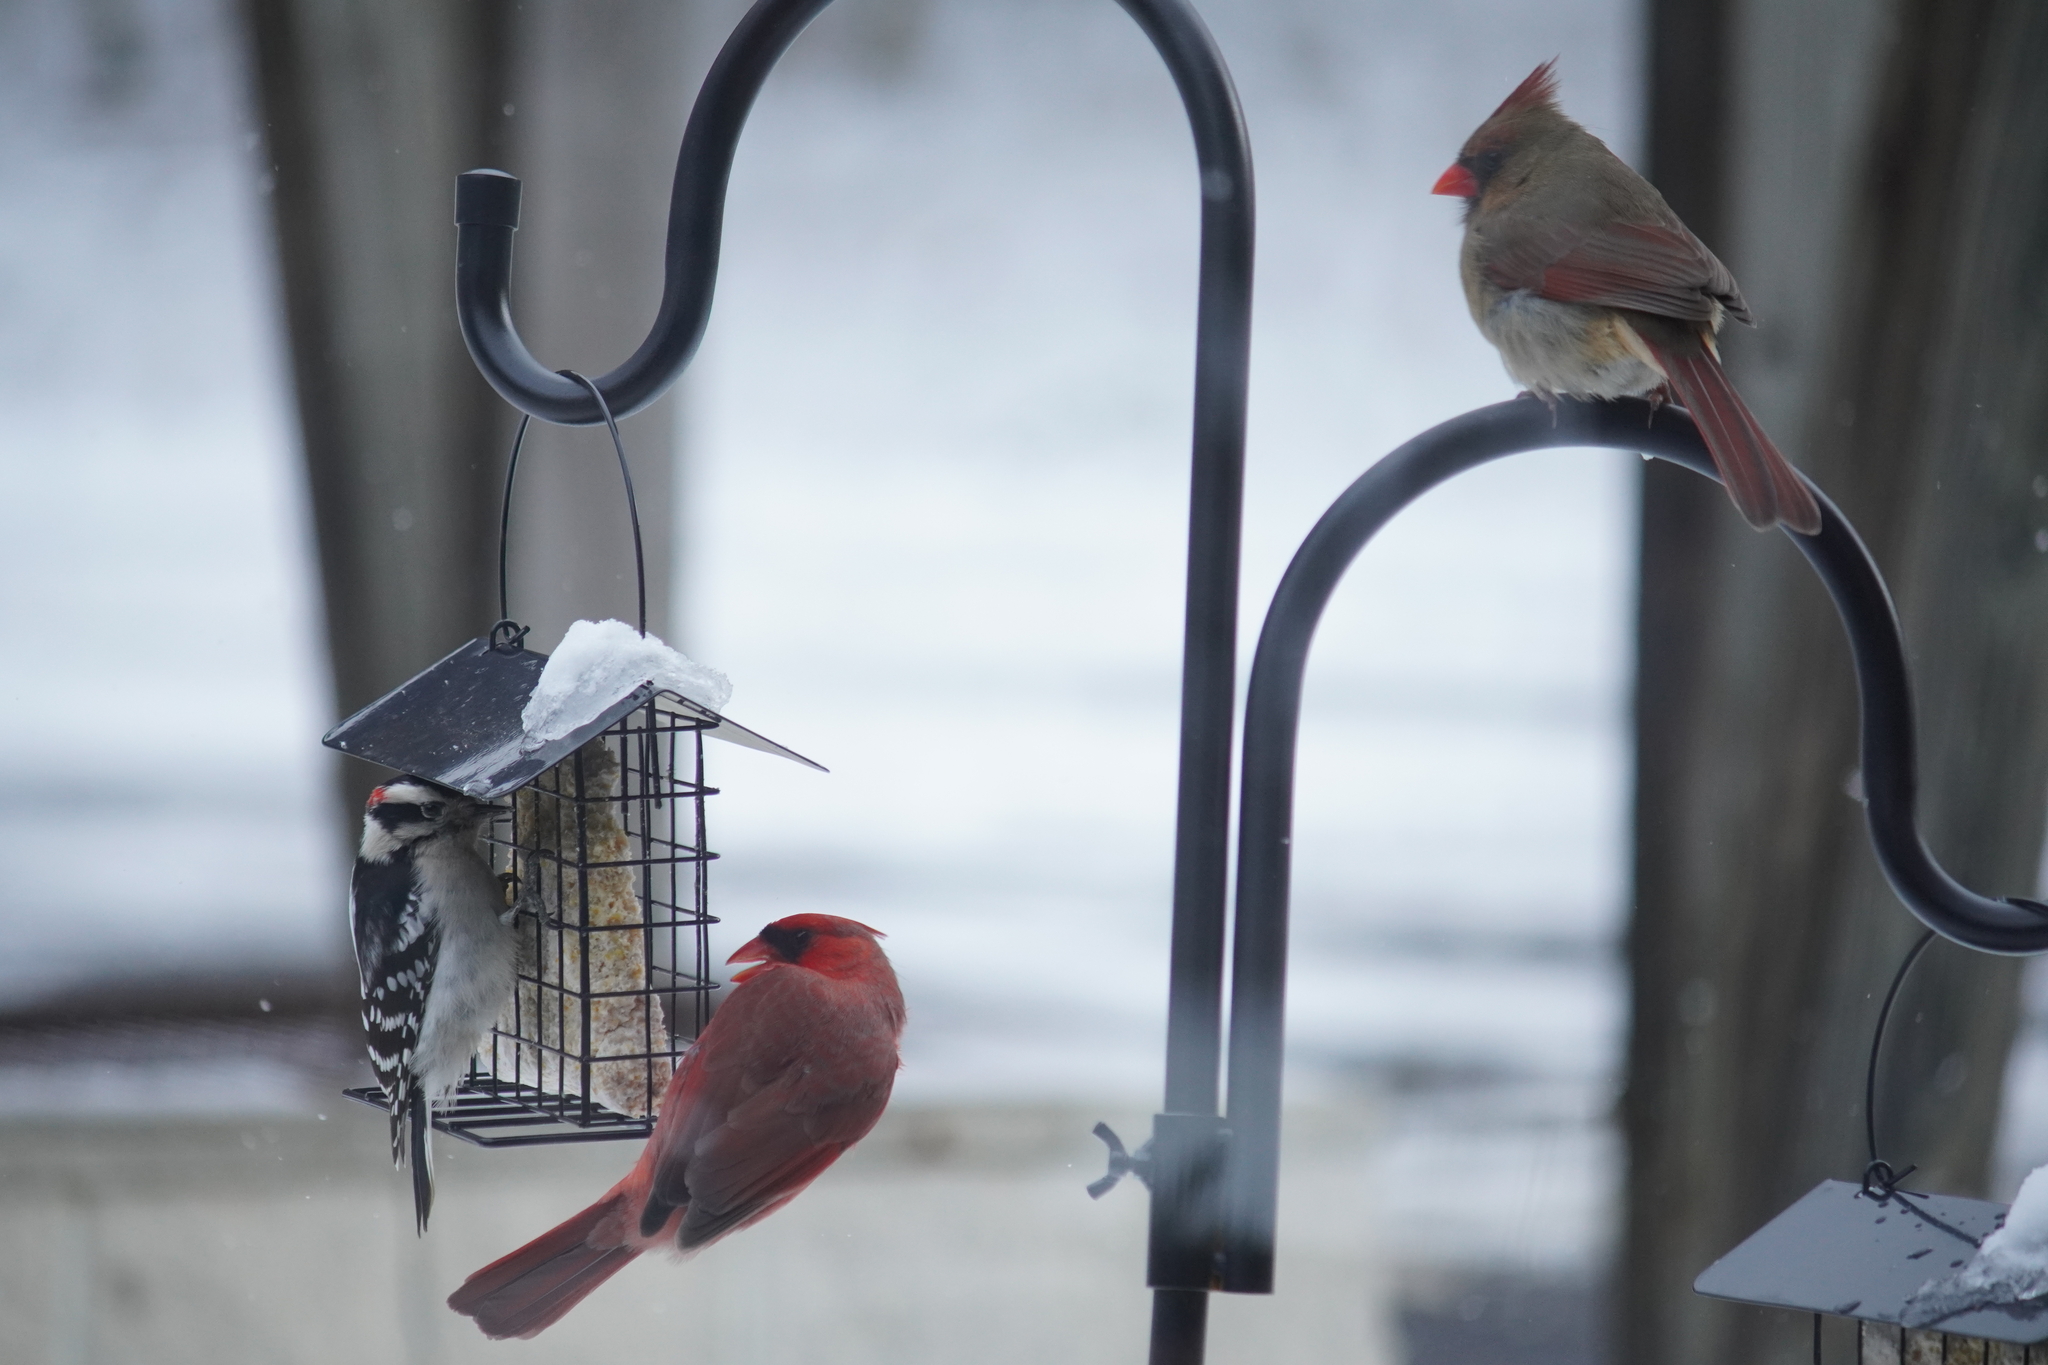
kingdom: Animalia
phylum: Chordata
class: Aves
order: Passeriformes
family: Cardinalidae
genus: Cardinalis
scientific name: Cardinalis cardinalis
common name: Northern cardinal
